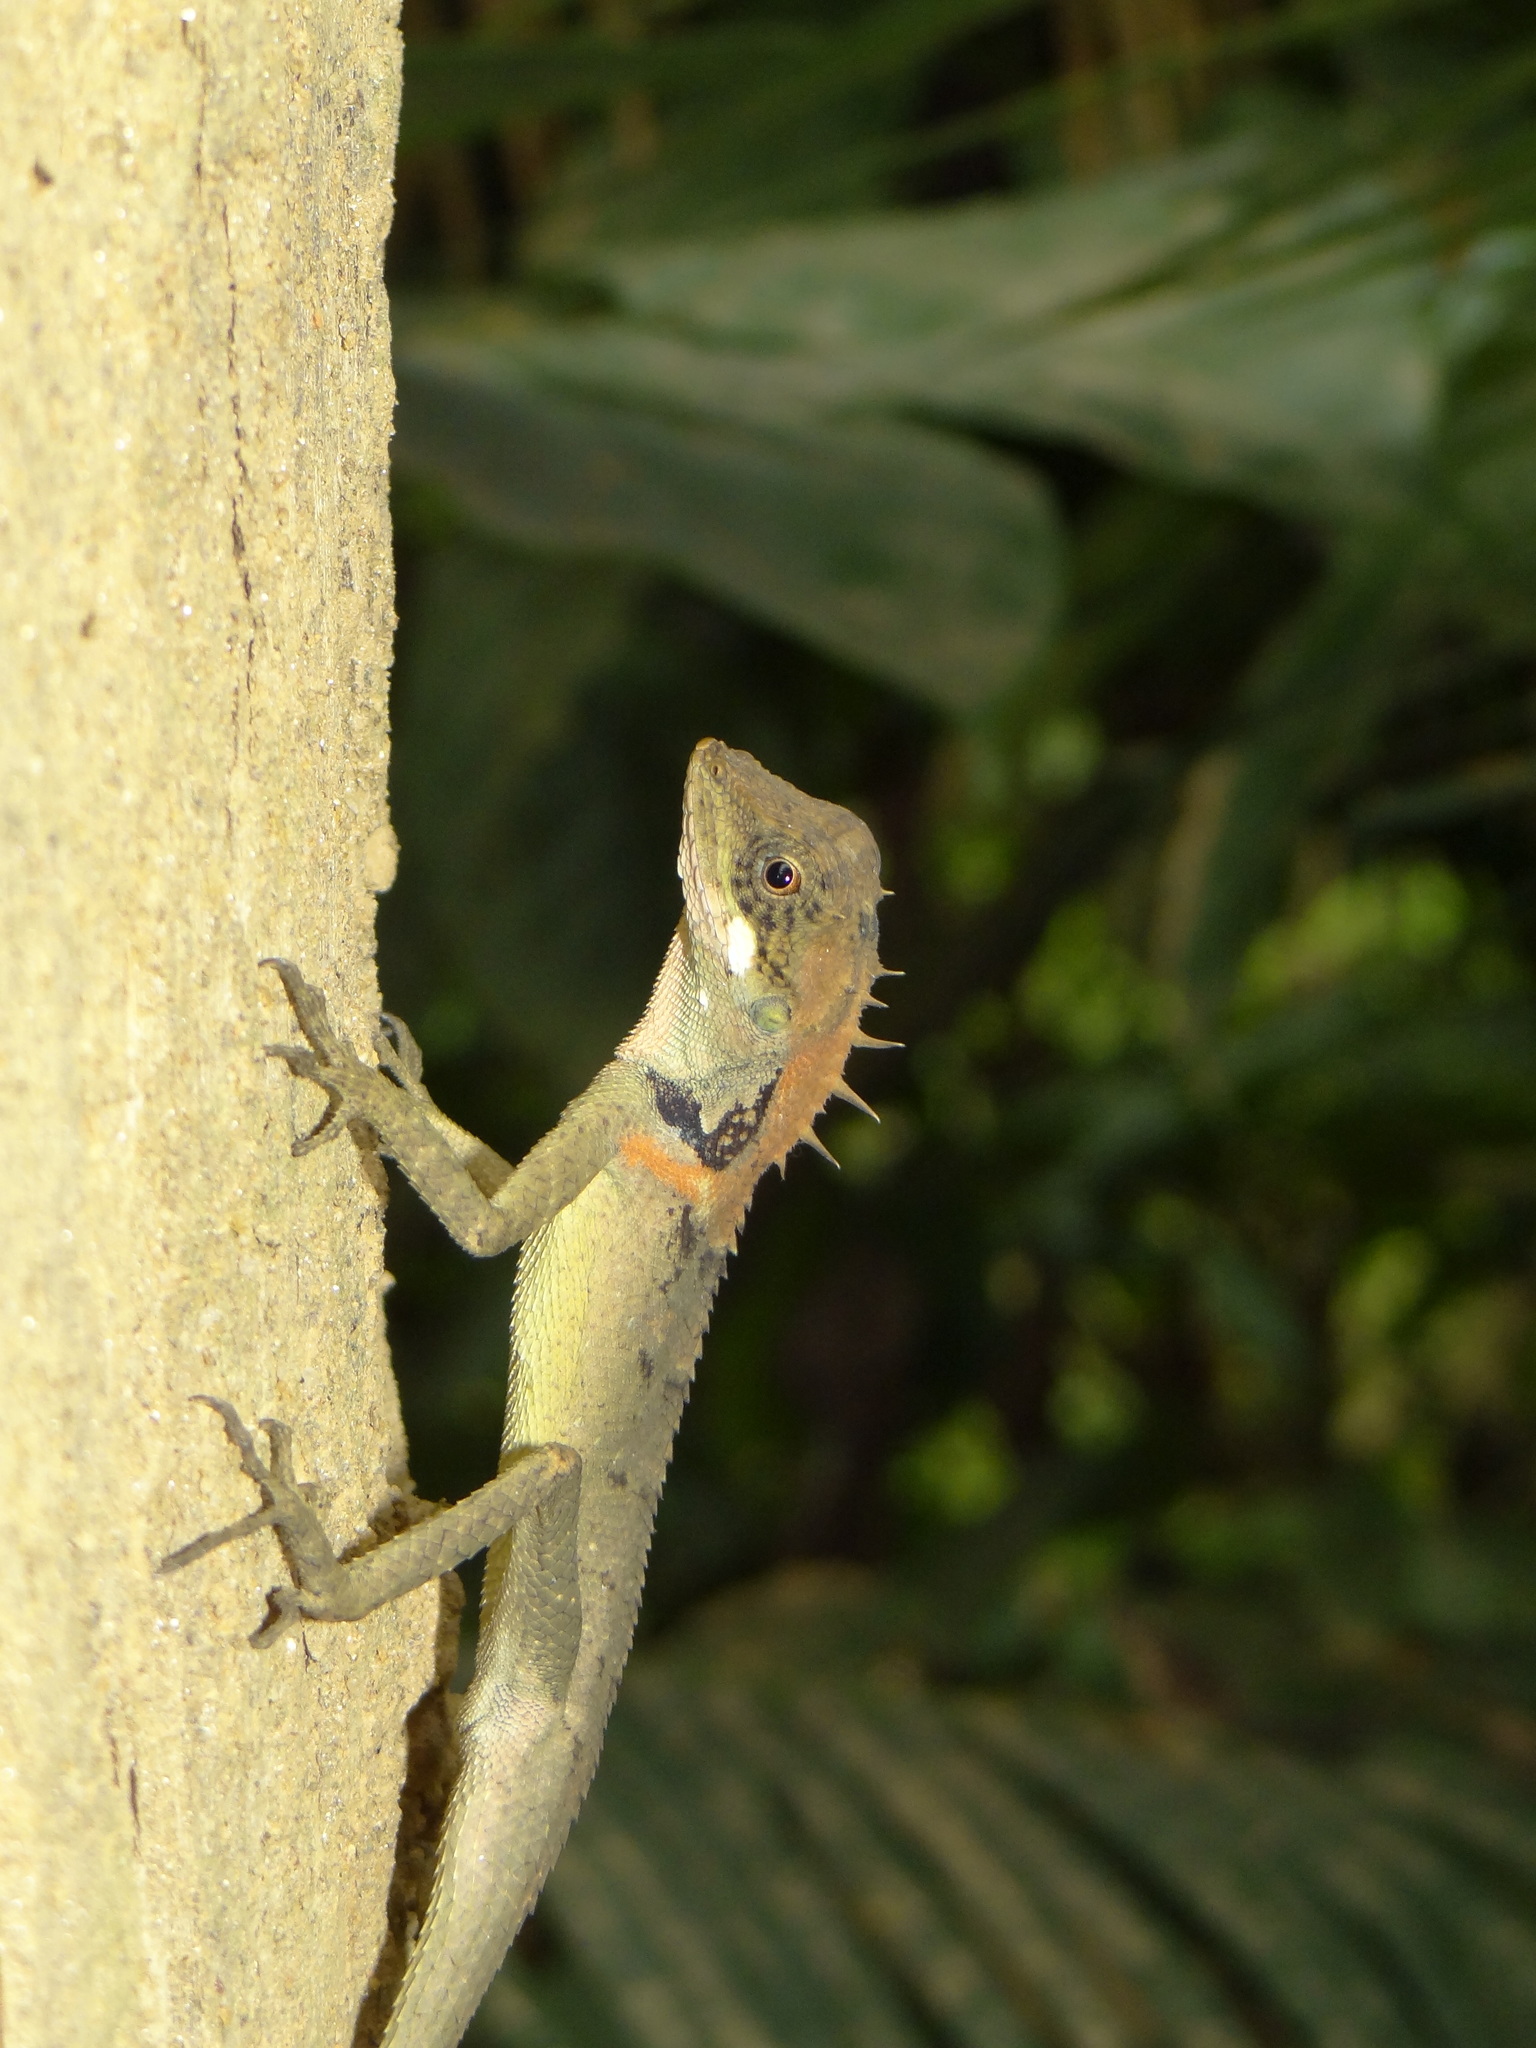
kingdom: Animalia
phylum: Chordata
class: Squamata
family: Agamidae
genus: Monilesaurus
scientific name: Monilesaurus rouxii
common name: Roux's forest lizard
